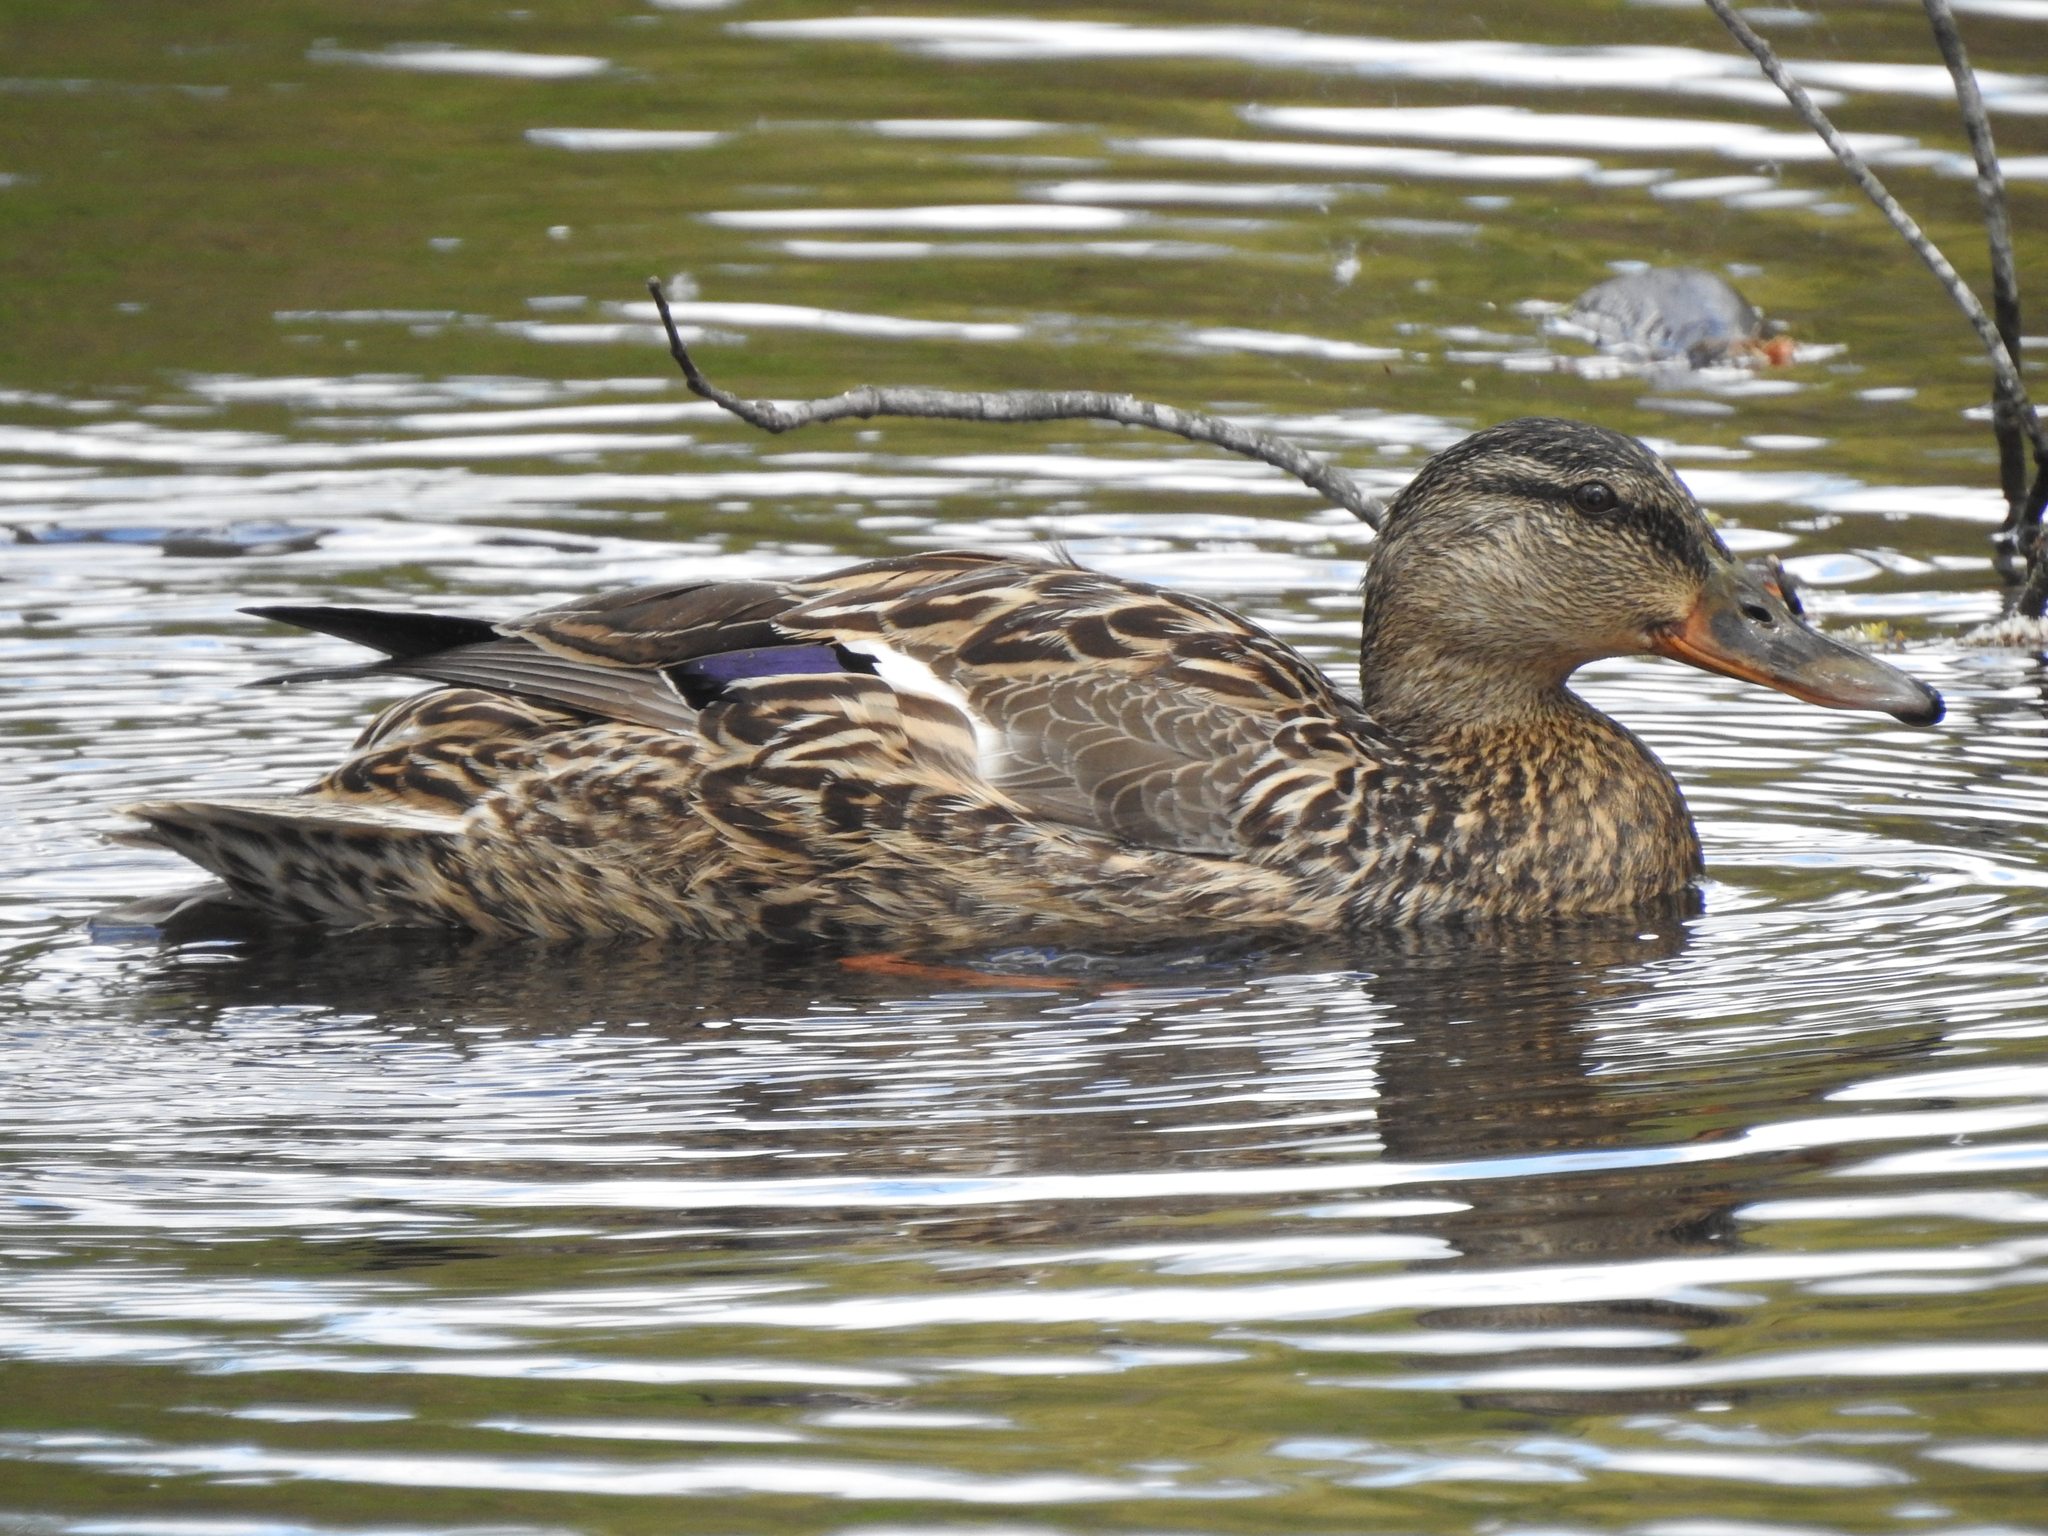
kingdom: Animalia
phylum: Chordata
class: Aves
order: Anseriformes
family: Anatidae
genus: Anas
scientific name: Anas platyrhynchos
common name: Mallard
